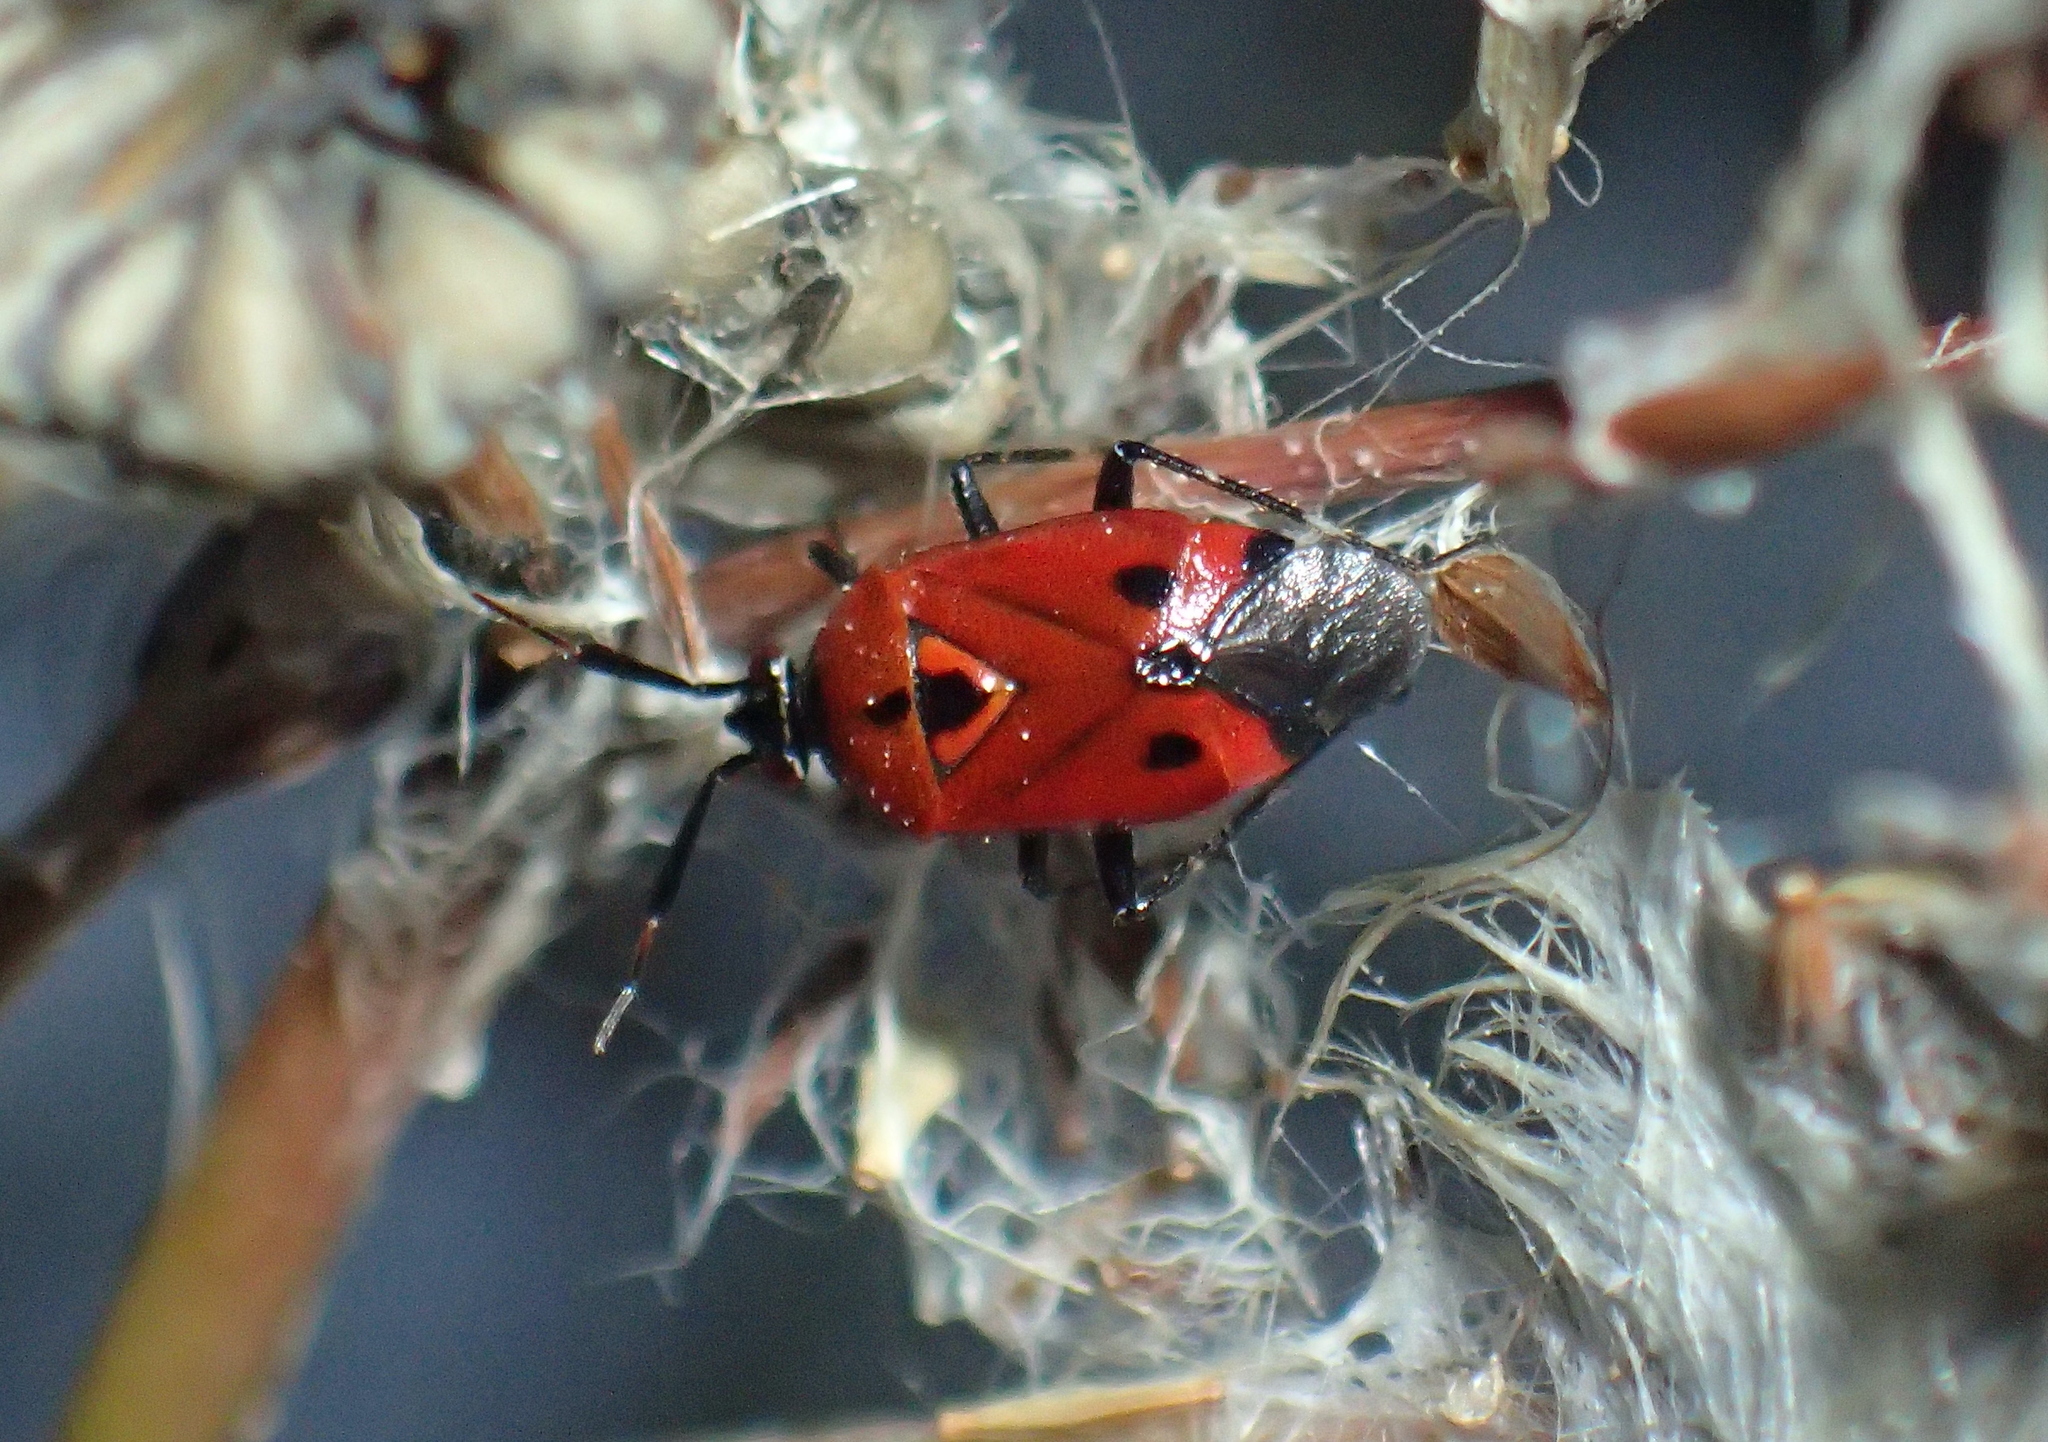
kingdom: Animalia
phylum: Arthropoda
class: Insecta
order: Hemiptera
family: Miridae
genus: Deraeocoris
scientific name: Deraeocoris punctum
